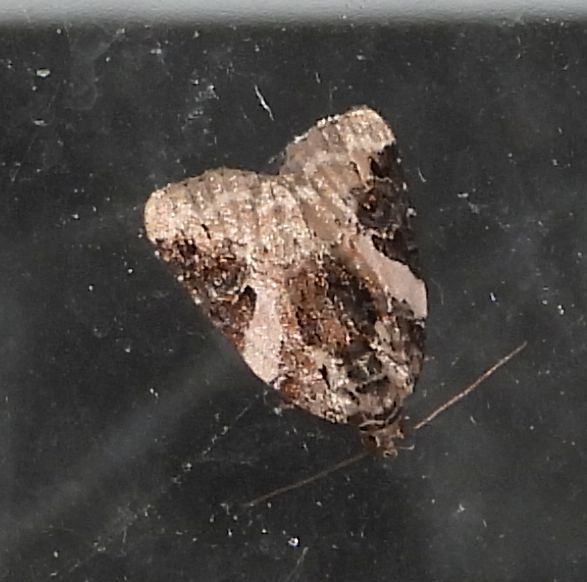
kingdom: Animalia
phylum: Arthropoda
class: Insecta
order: Lepidoptera
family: Noctuidae
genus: Pseudeustrotia
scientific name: Pseudeustrotia carneola
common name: Pink-barred lithacodia moth
